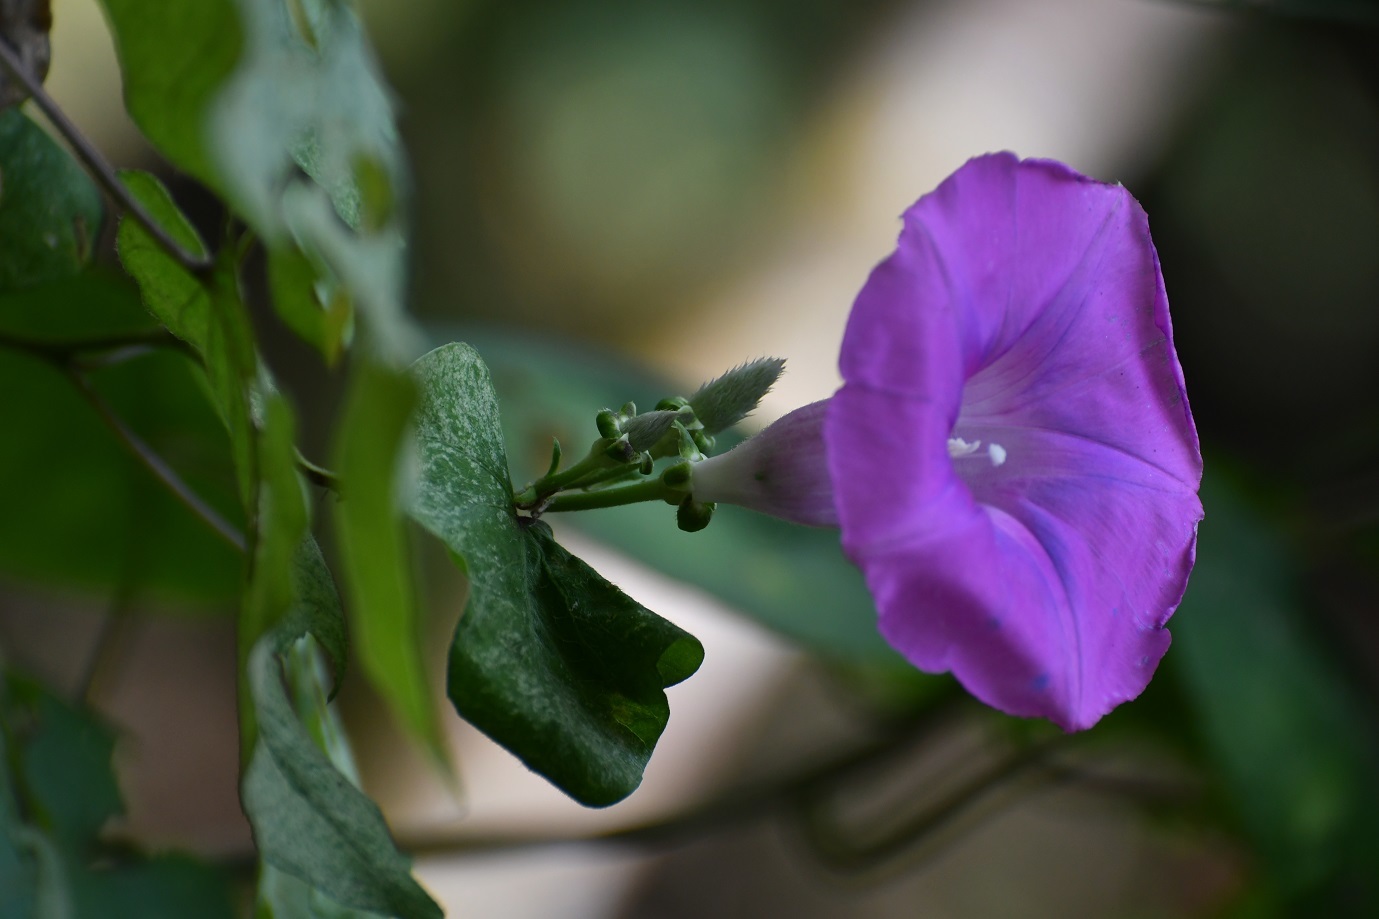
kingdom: Plantae
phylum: Tracheophyta
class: Magnoliopsida
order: Solanales
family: Convolvulaceae
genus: Ipomoea
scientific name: Ipomoea leucotricha
